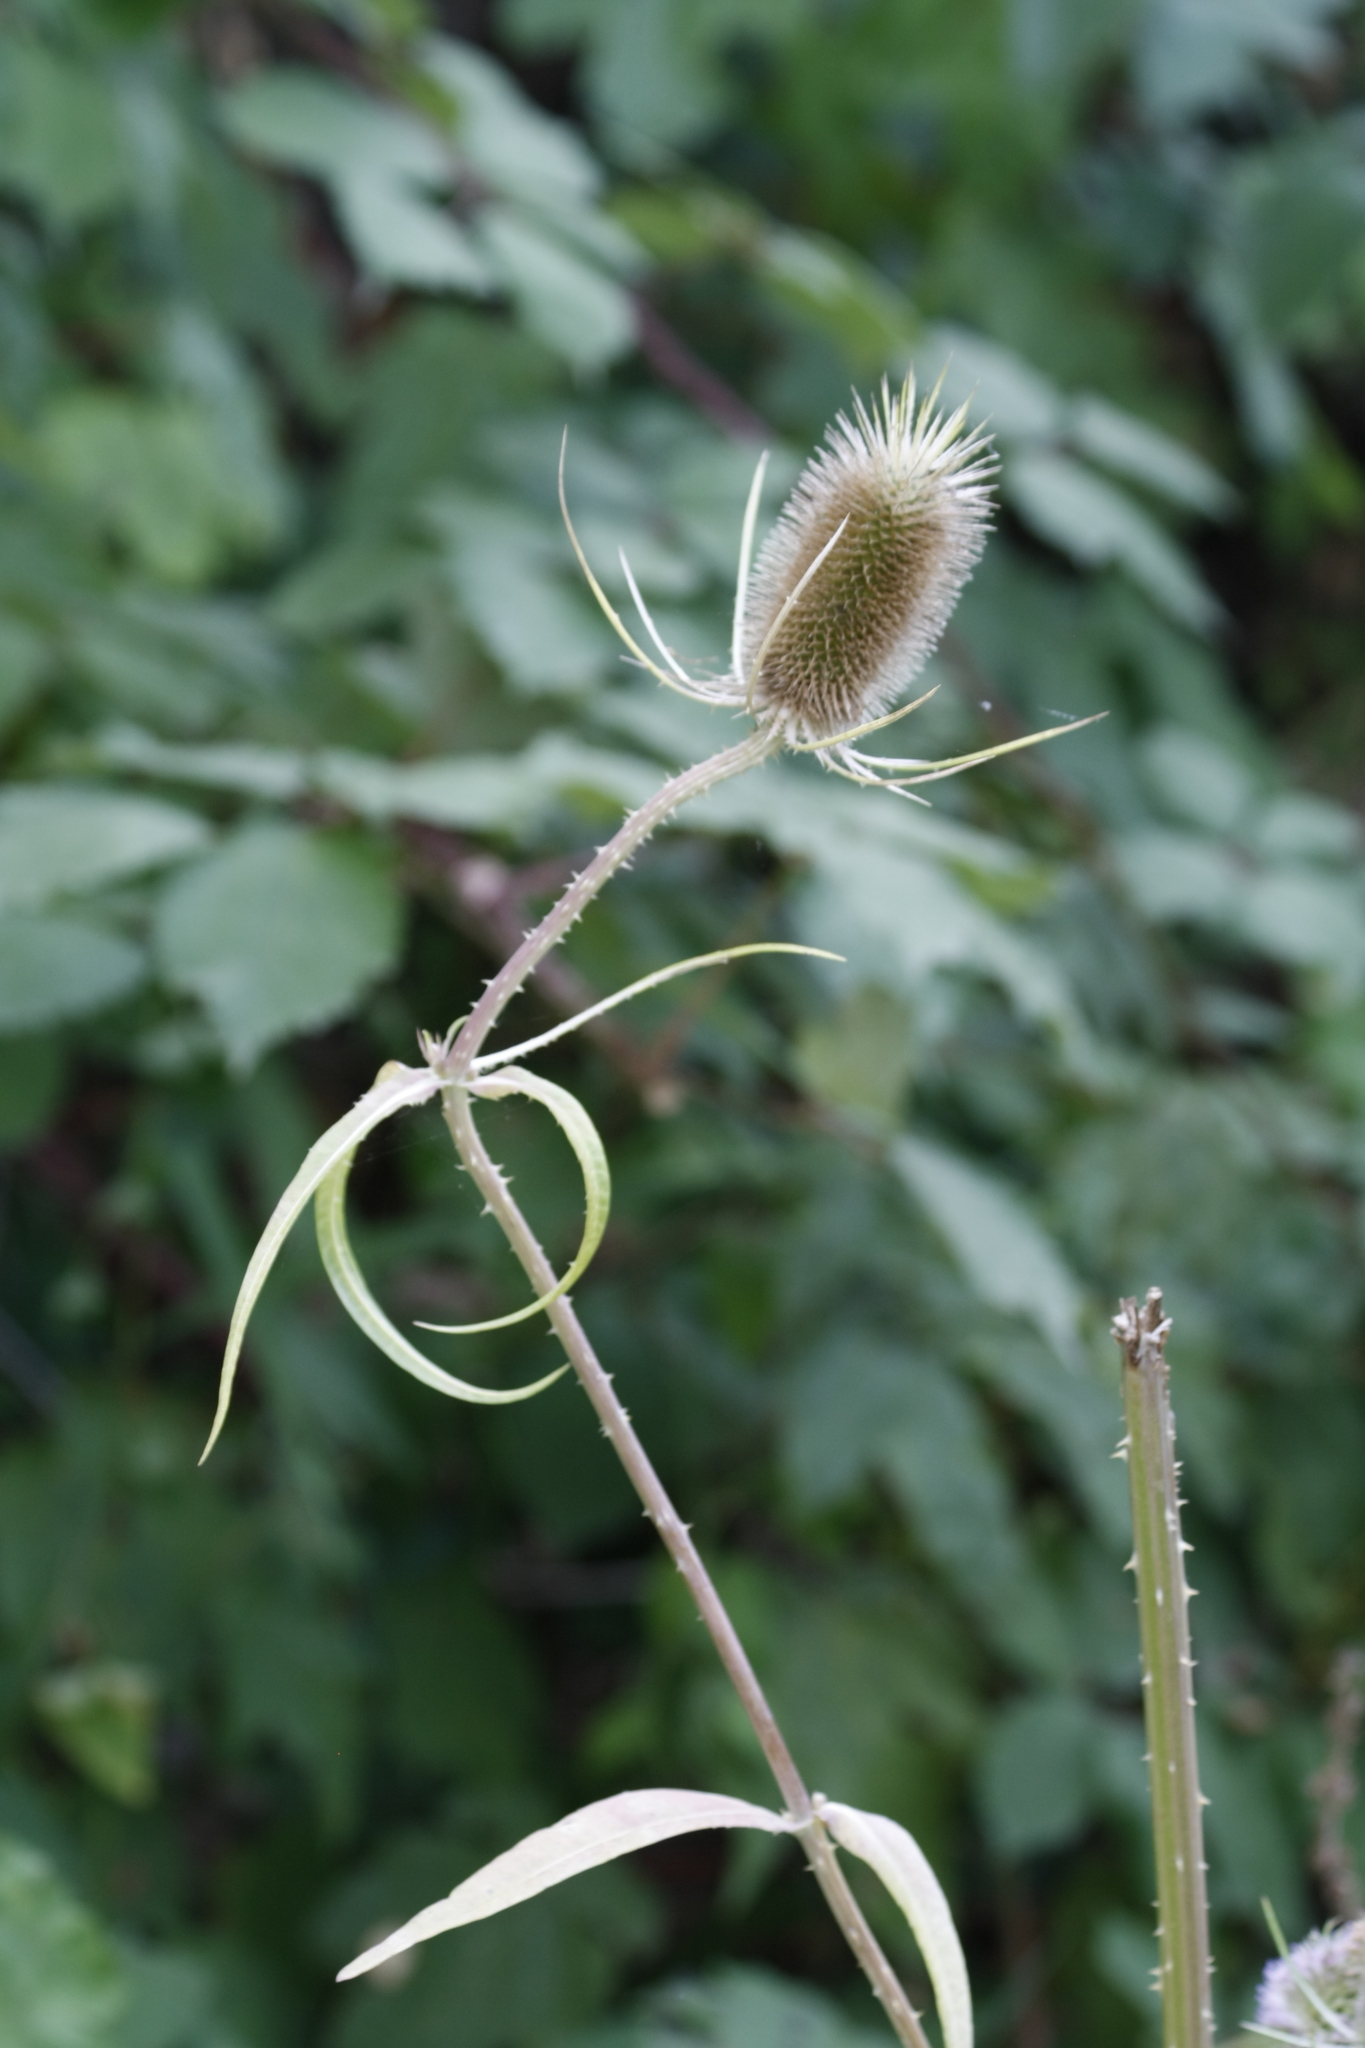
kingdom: Plantae
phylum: Tracheophyta
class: Magnoliopsida
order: Dipsacales
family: Caprifoliaceae
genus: Dipsacus
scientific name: Dipsacus fullonum
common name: Teasel
